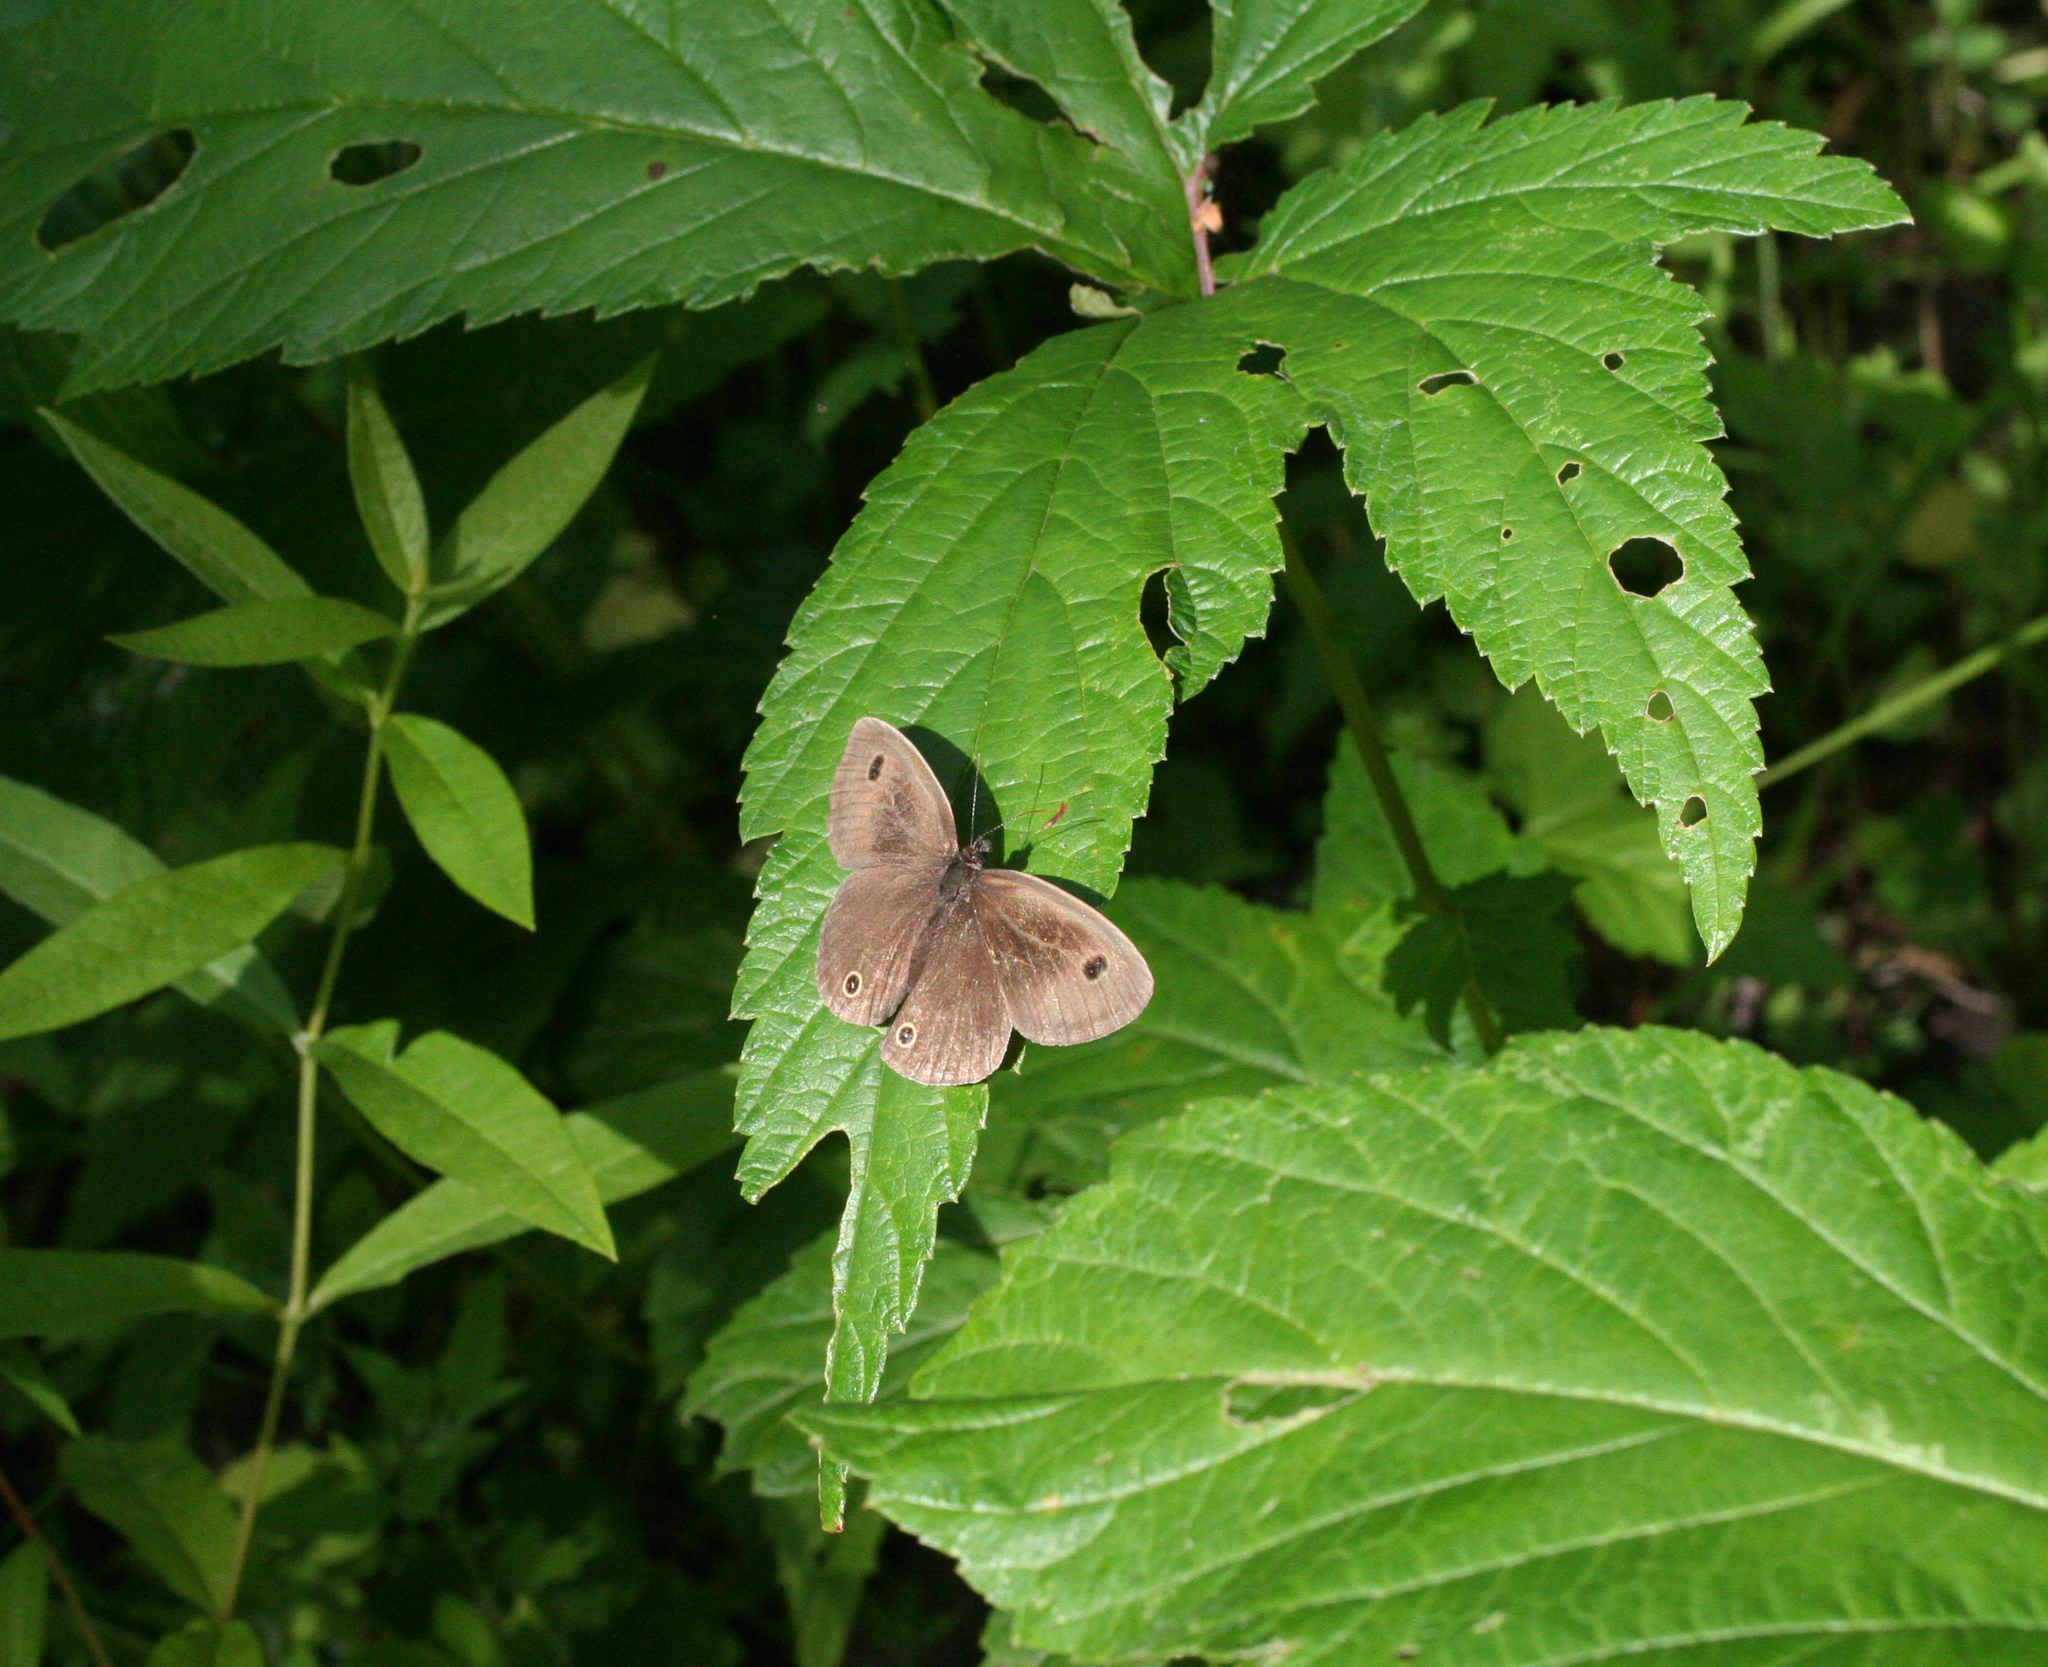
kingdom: Animalia
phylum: Arthropoda
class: Insecta
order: Lepidoptera
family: Nymphalidae
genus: Ypthima
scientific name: Ypthima multistriata
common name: Striated ringlet
